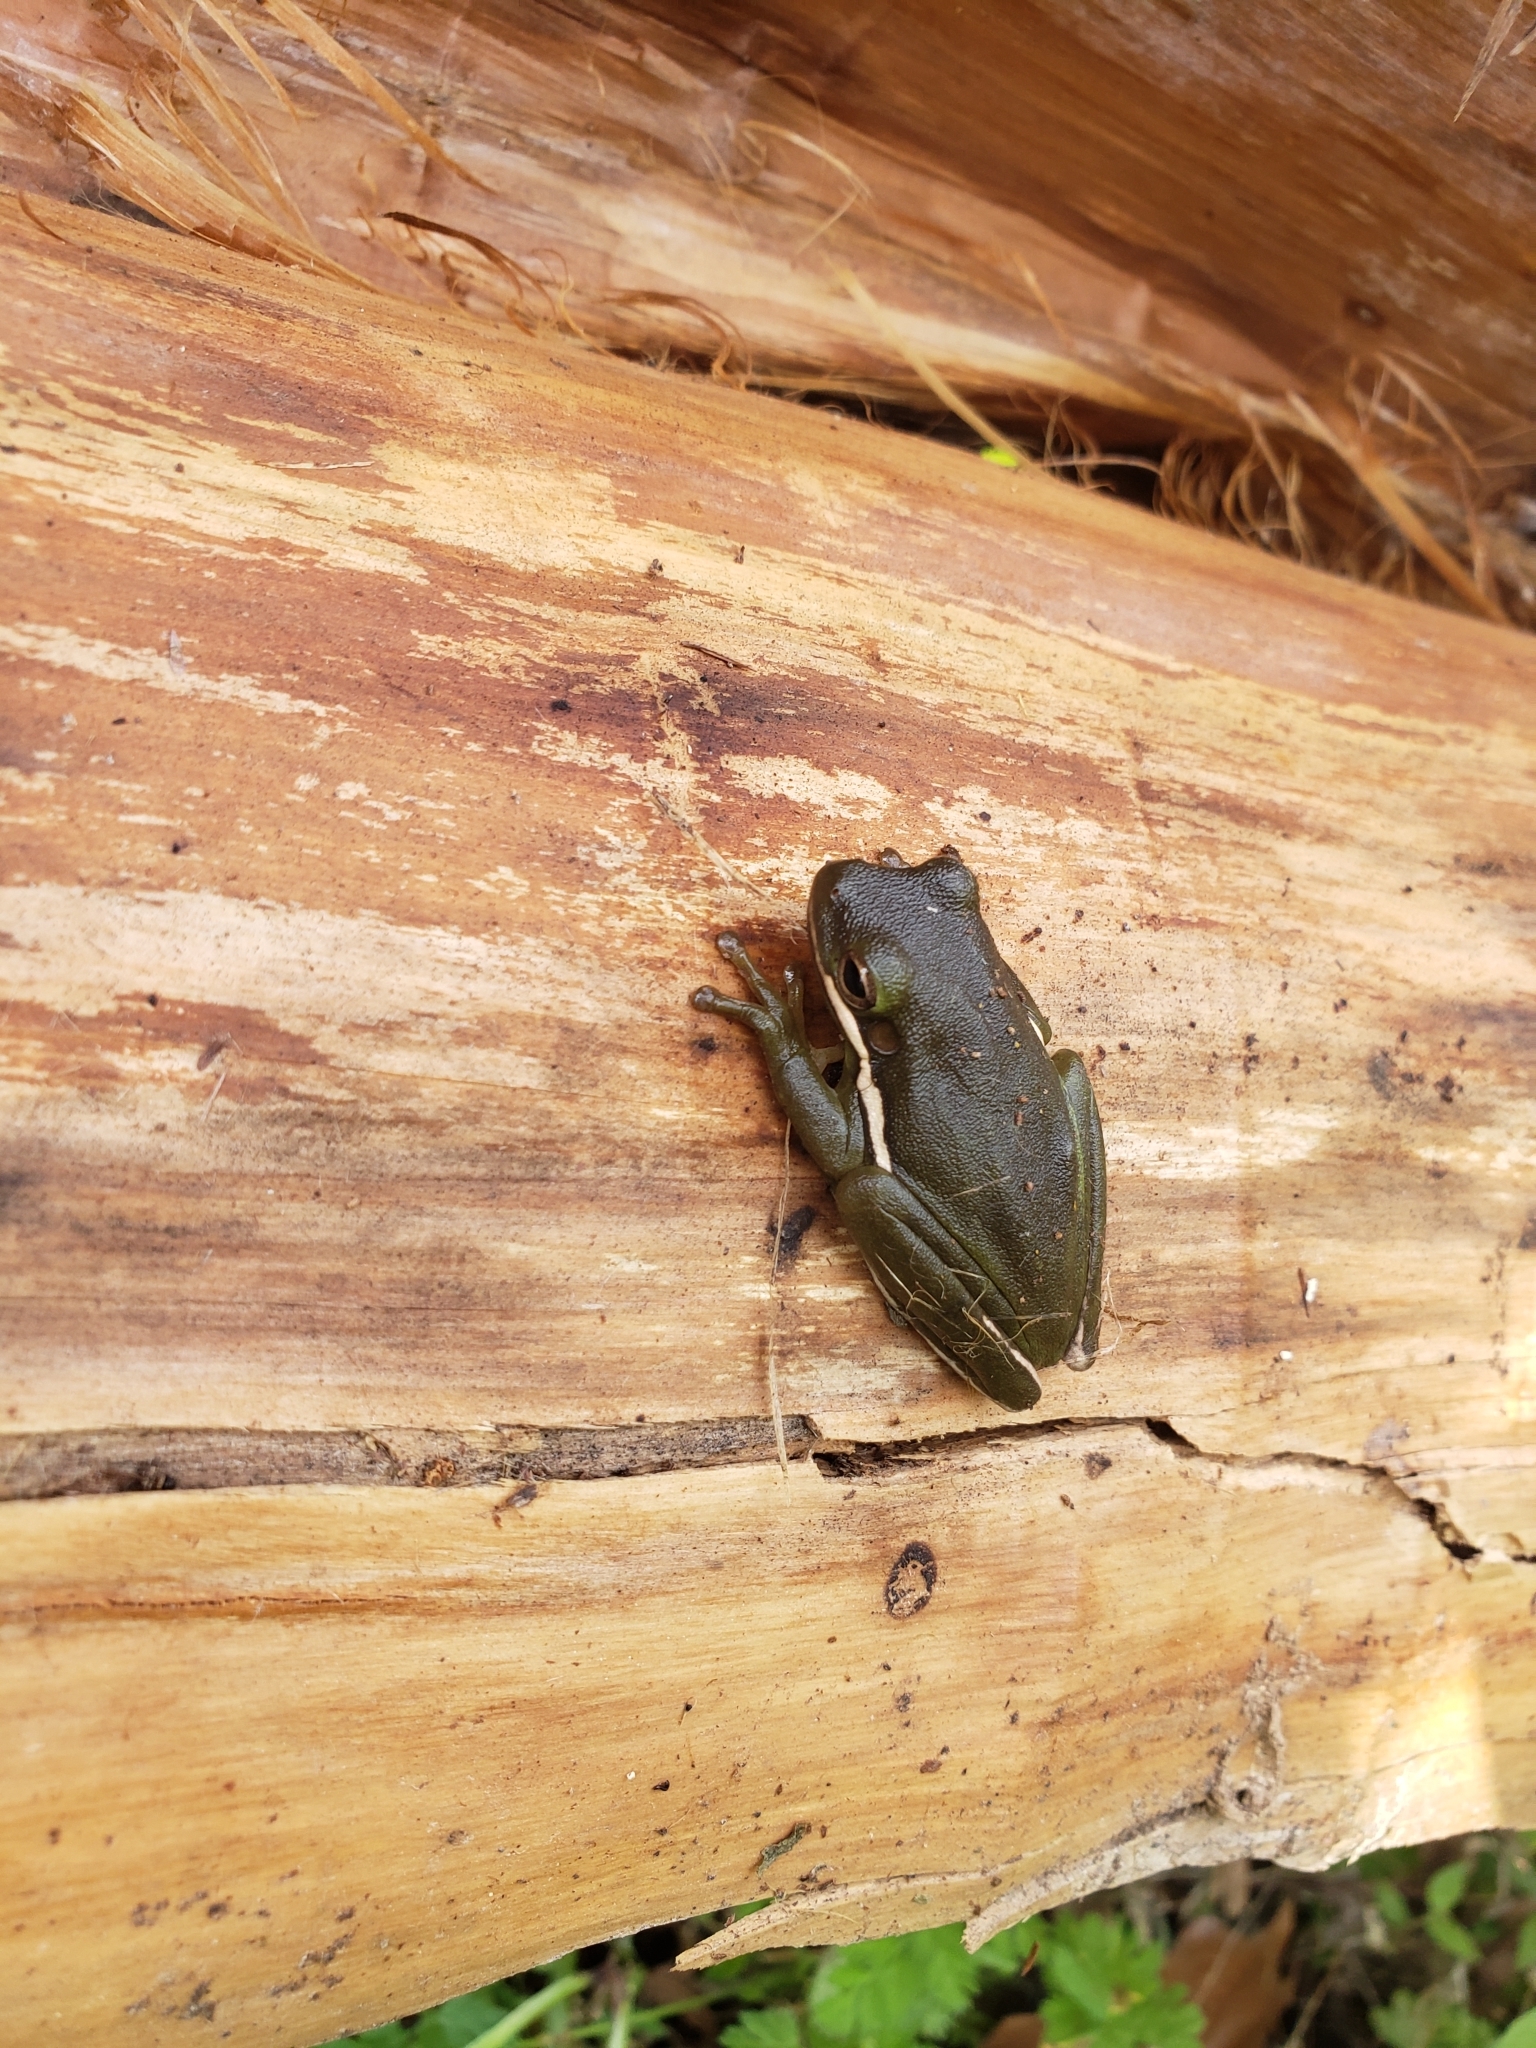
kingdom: Animalia
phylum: Chordata
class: Amphibia
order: Anura
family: Hylidae
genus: Dryophytes
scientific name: Dryophytes cinereus
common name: Green treefrog
